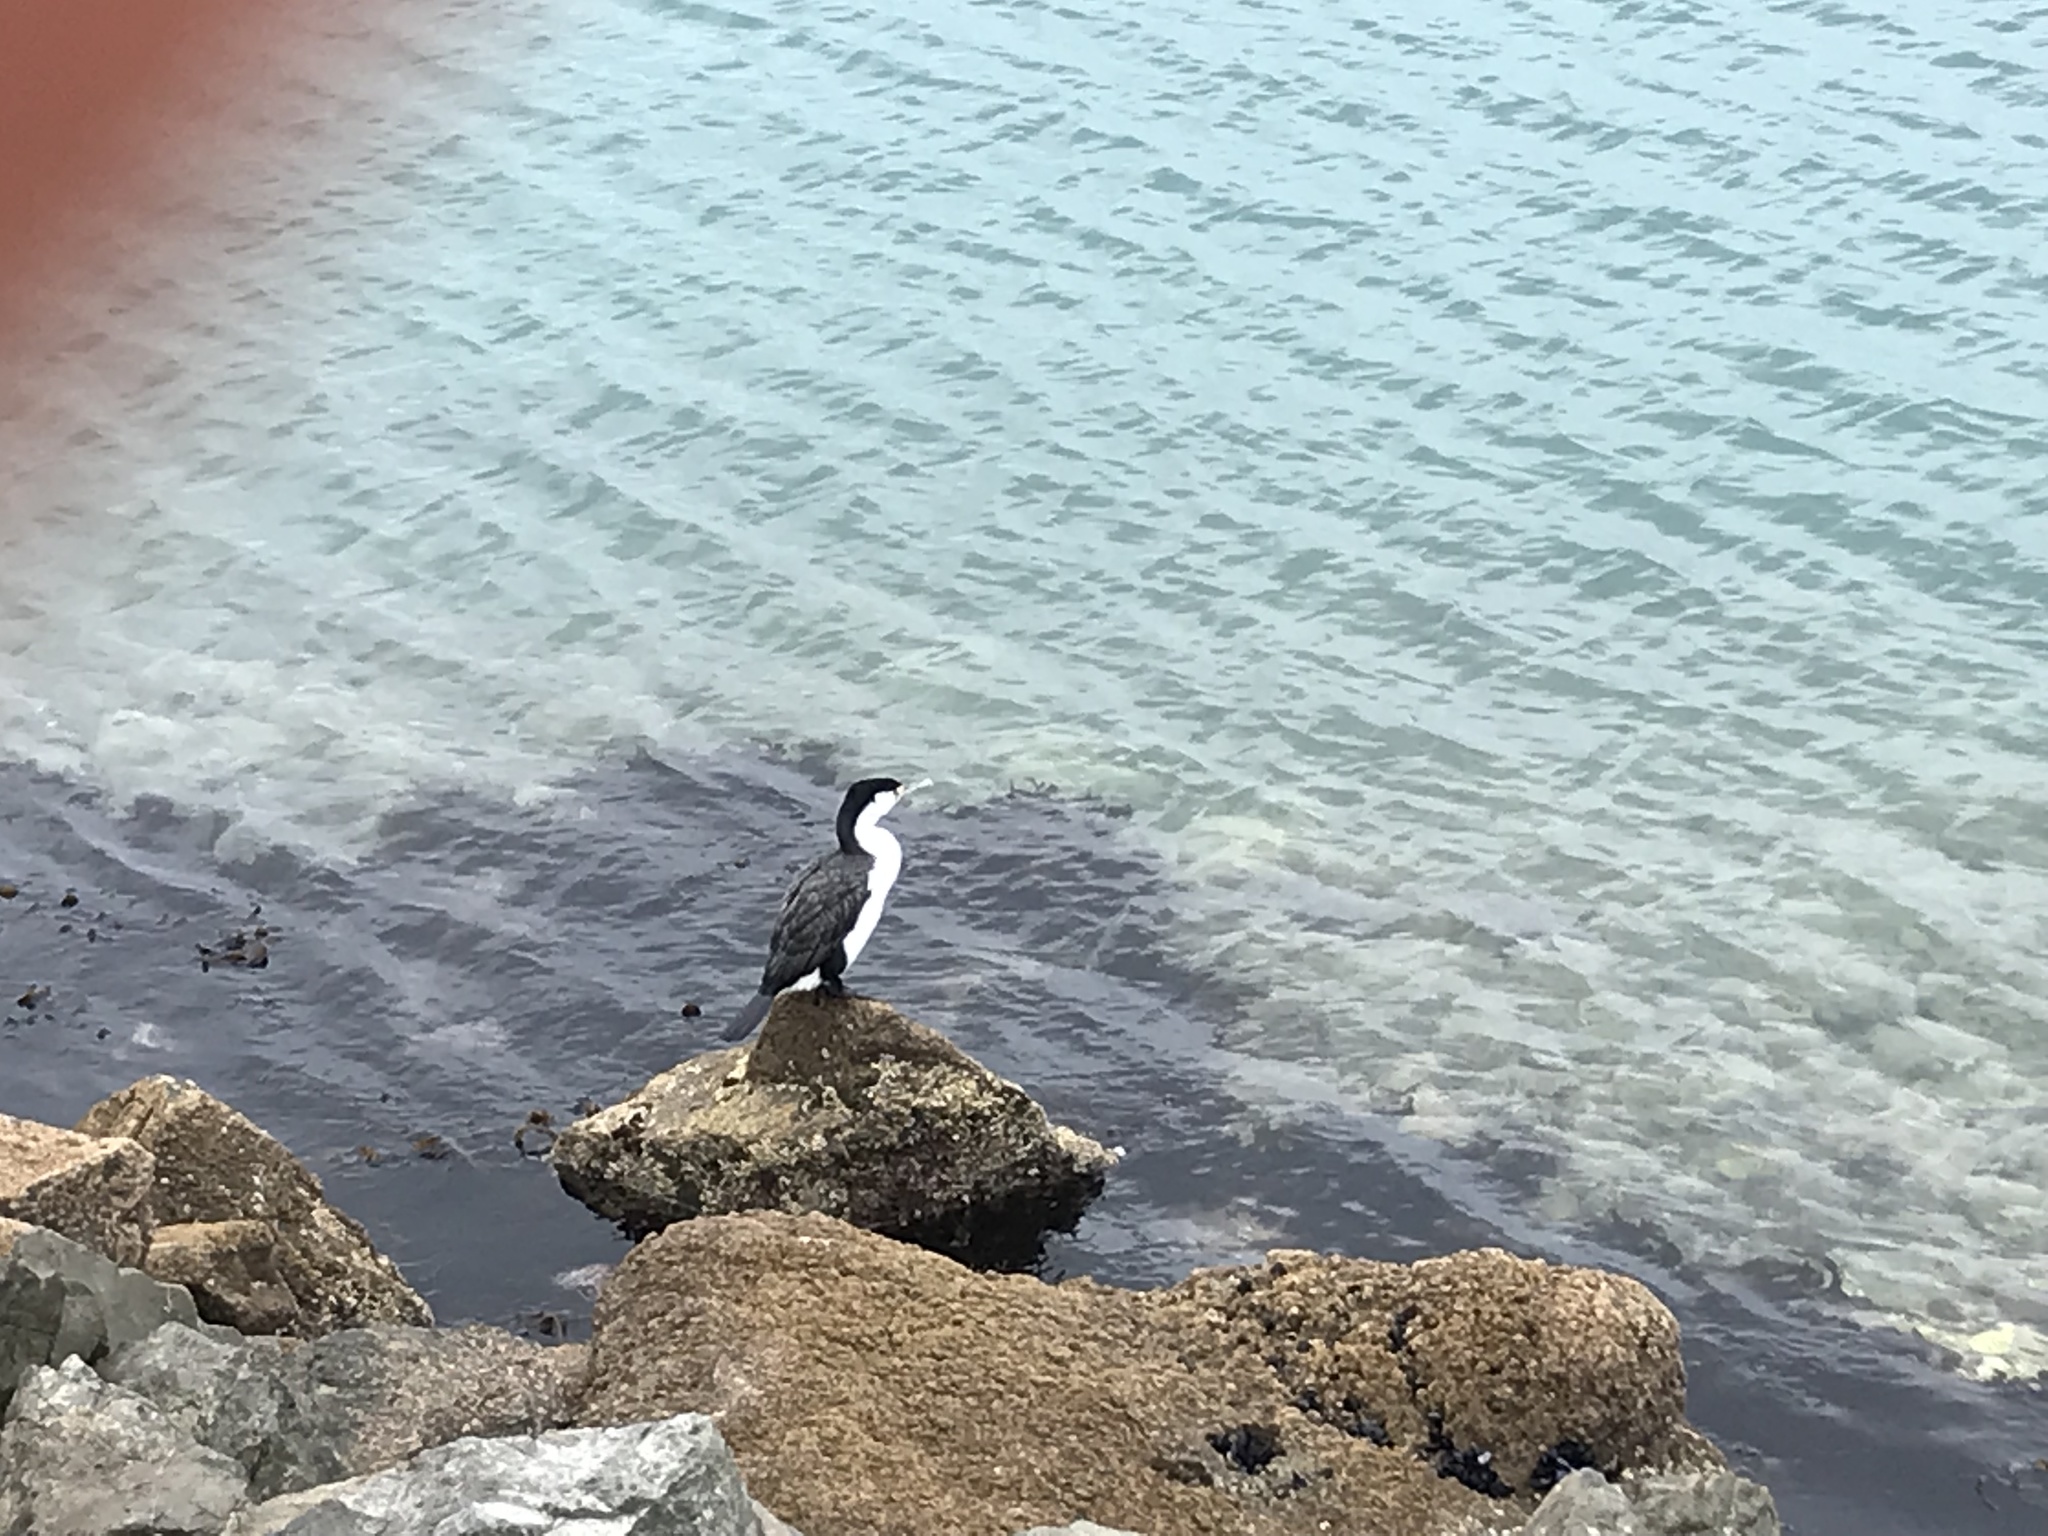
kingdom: Animalia
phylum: Chordata
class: Aves
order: Suliformes
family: Phalacrocoracidae
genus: Phalacrocorax
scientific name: Phalacrocorax varius
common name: Pied cormorant
